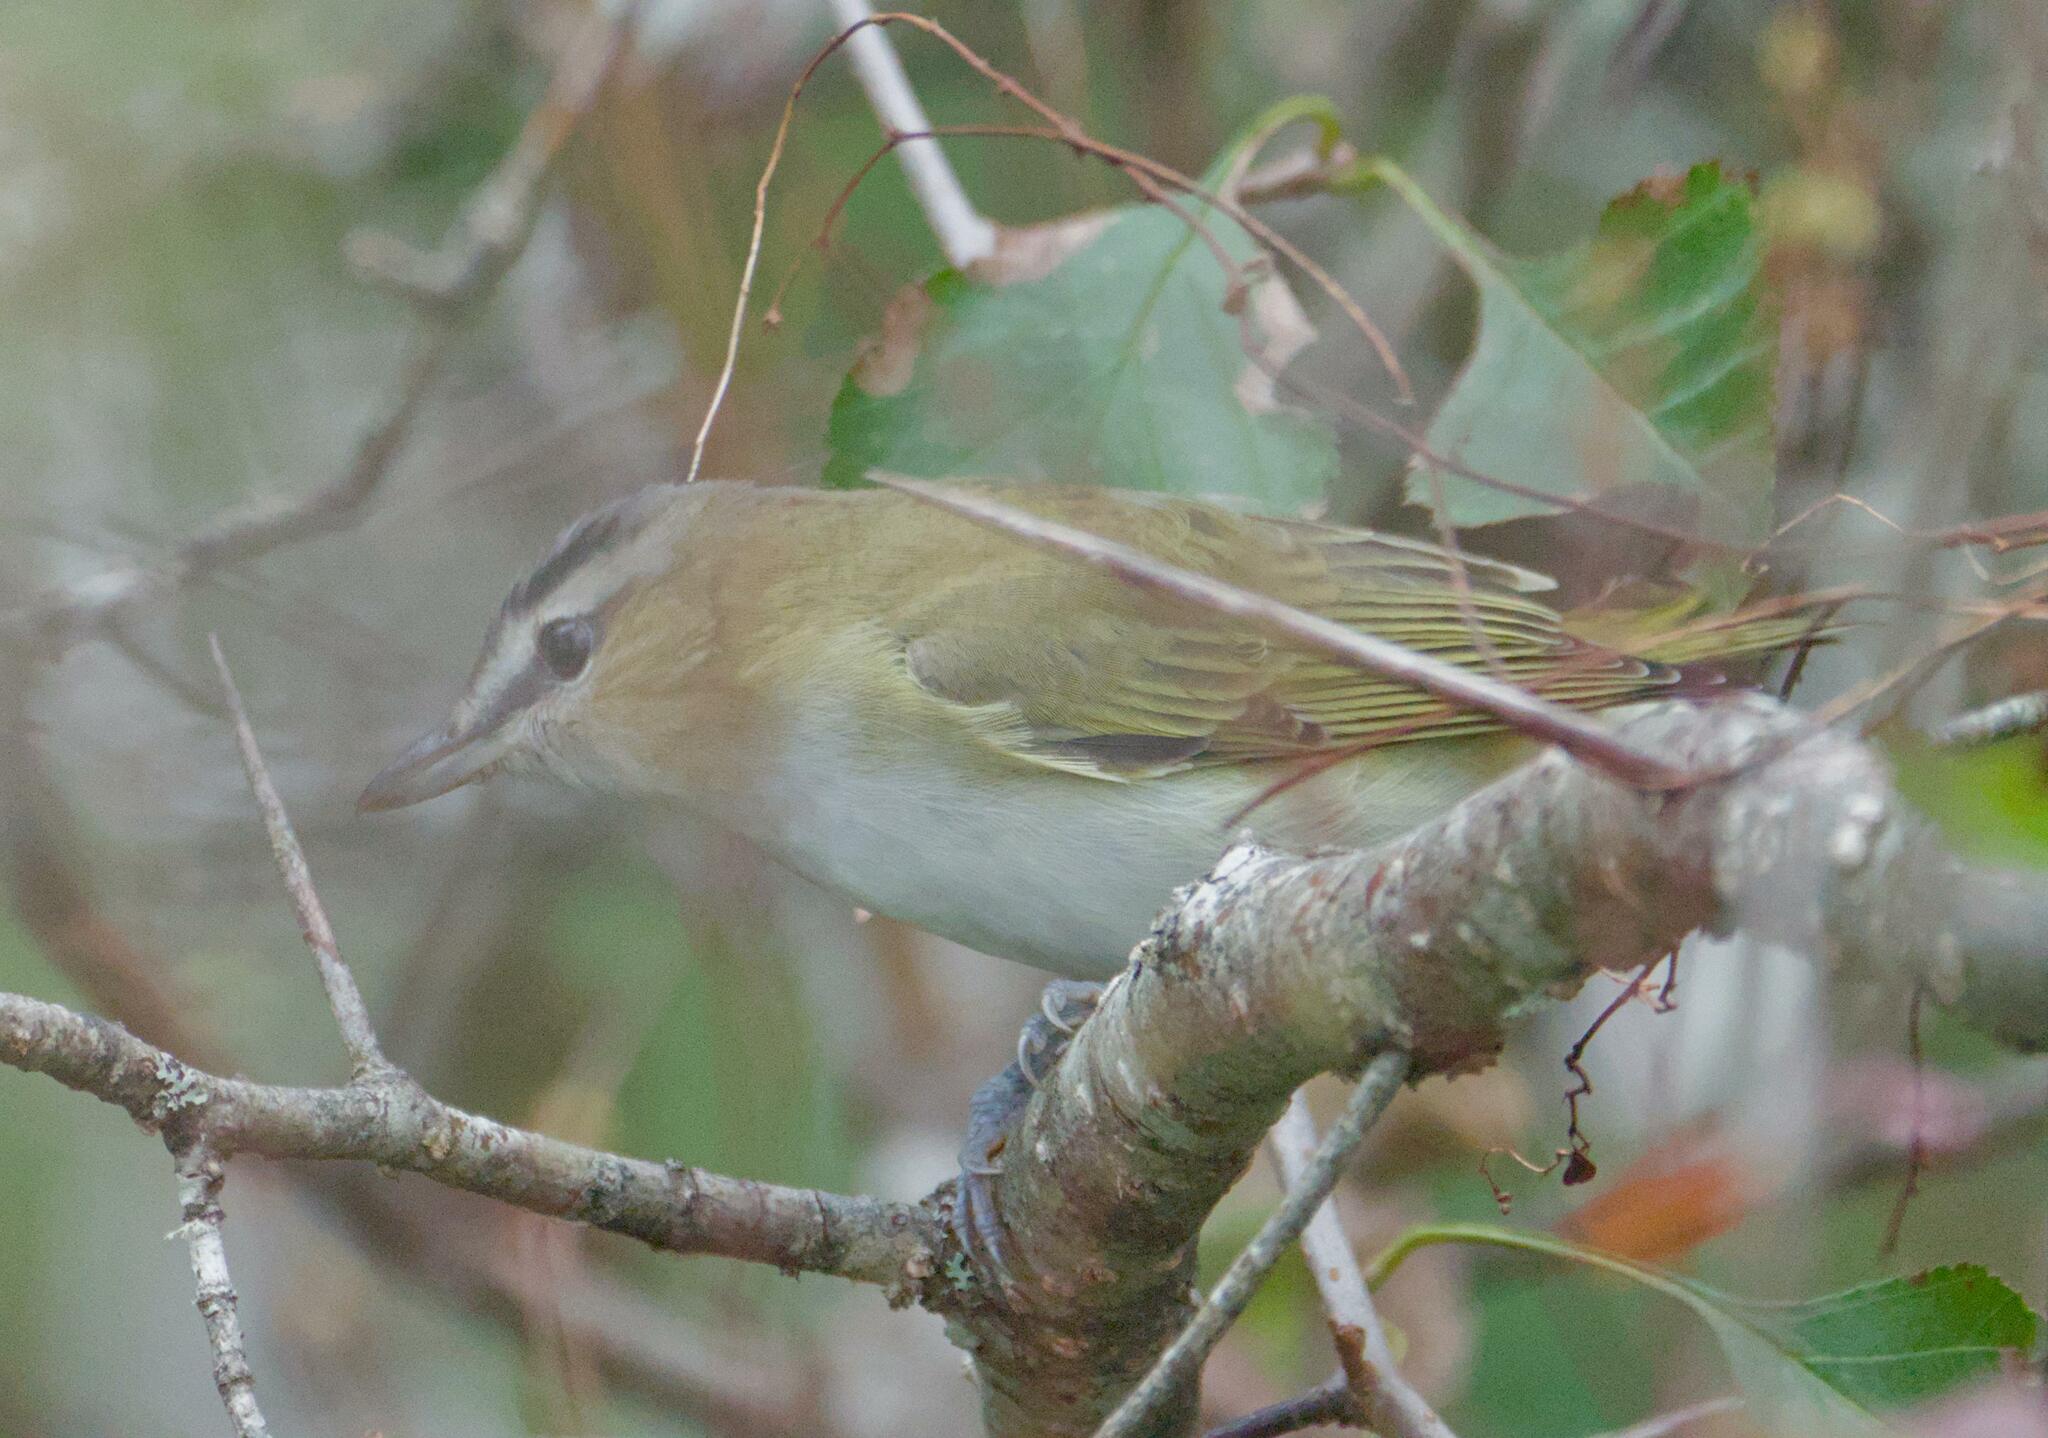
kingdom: Animalia
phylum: Chordata
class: Aves
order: Passeriformes
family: Vireonidae
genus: Vireo
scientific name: Vireo olivaceus
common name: Red-eyed vireo
